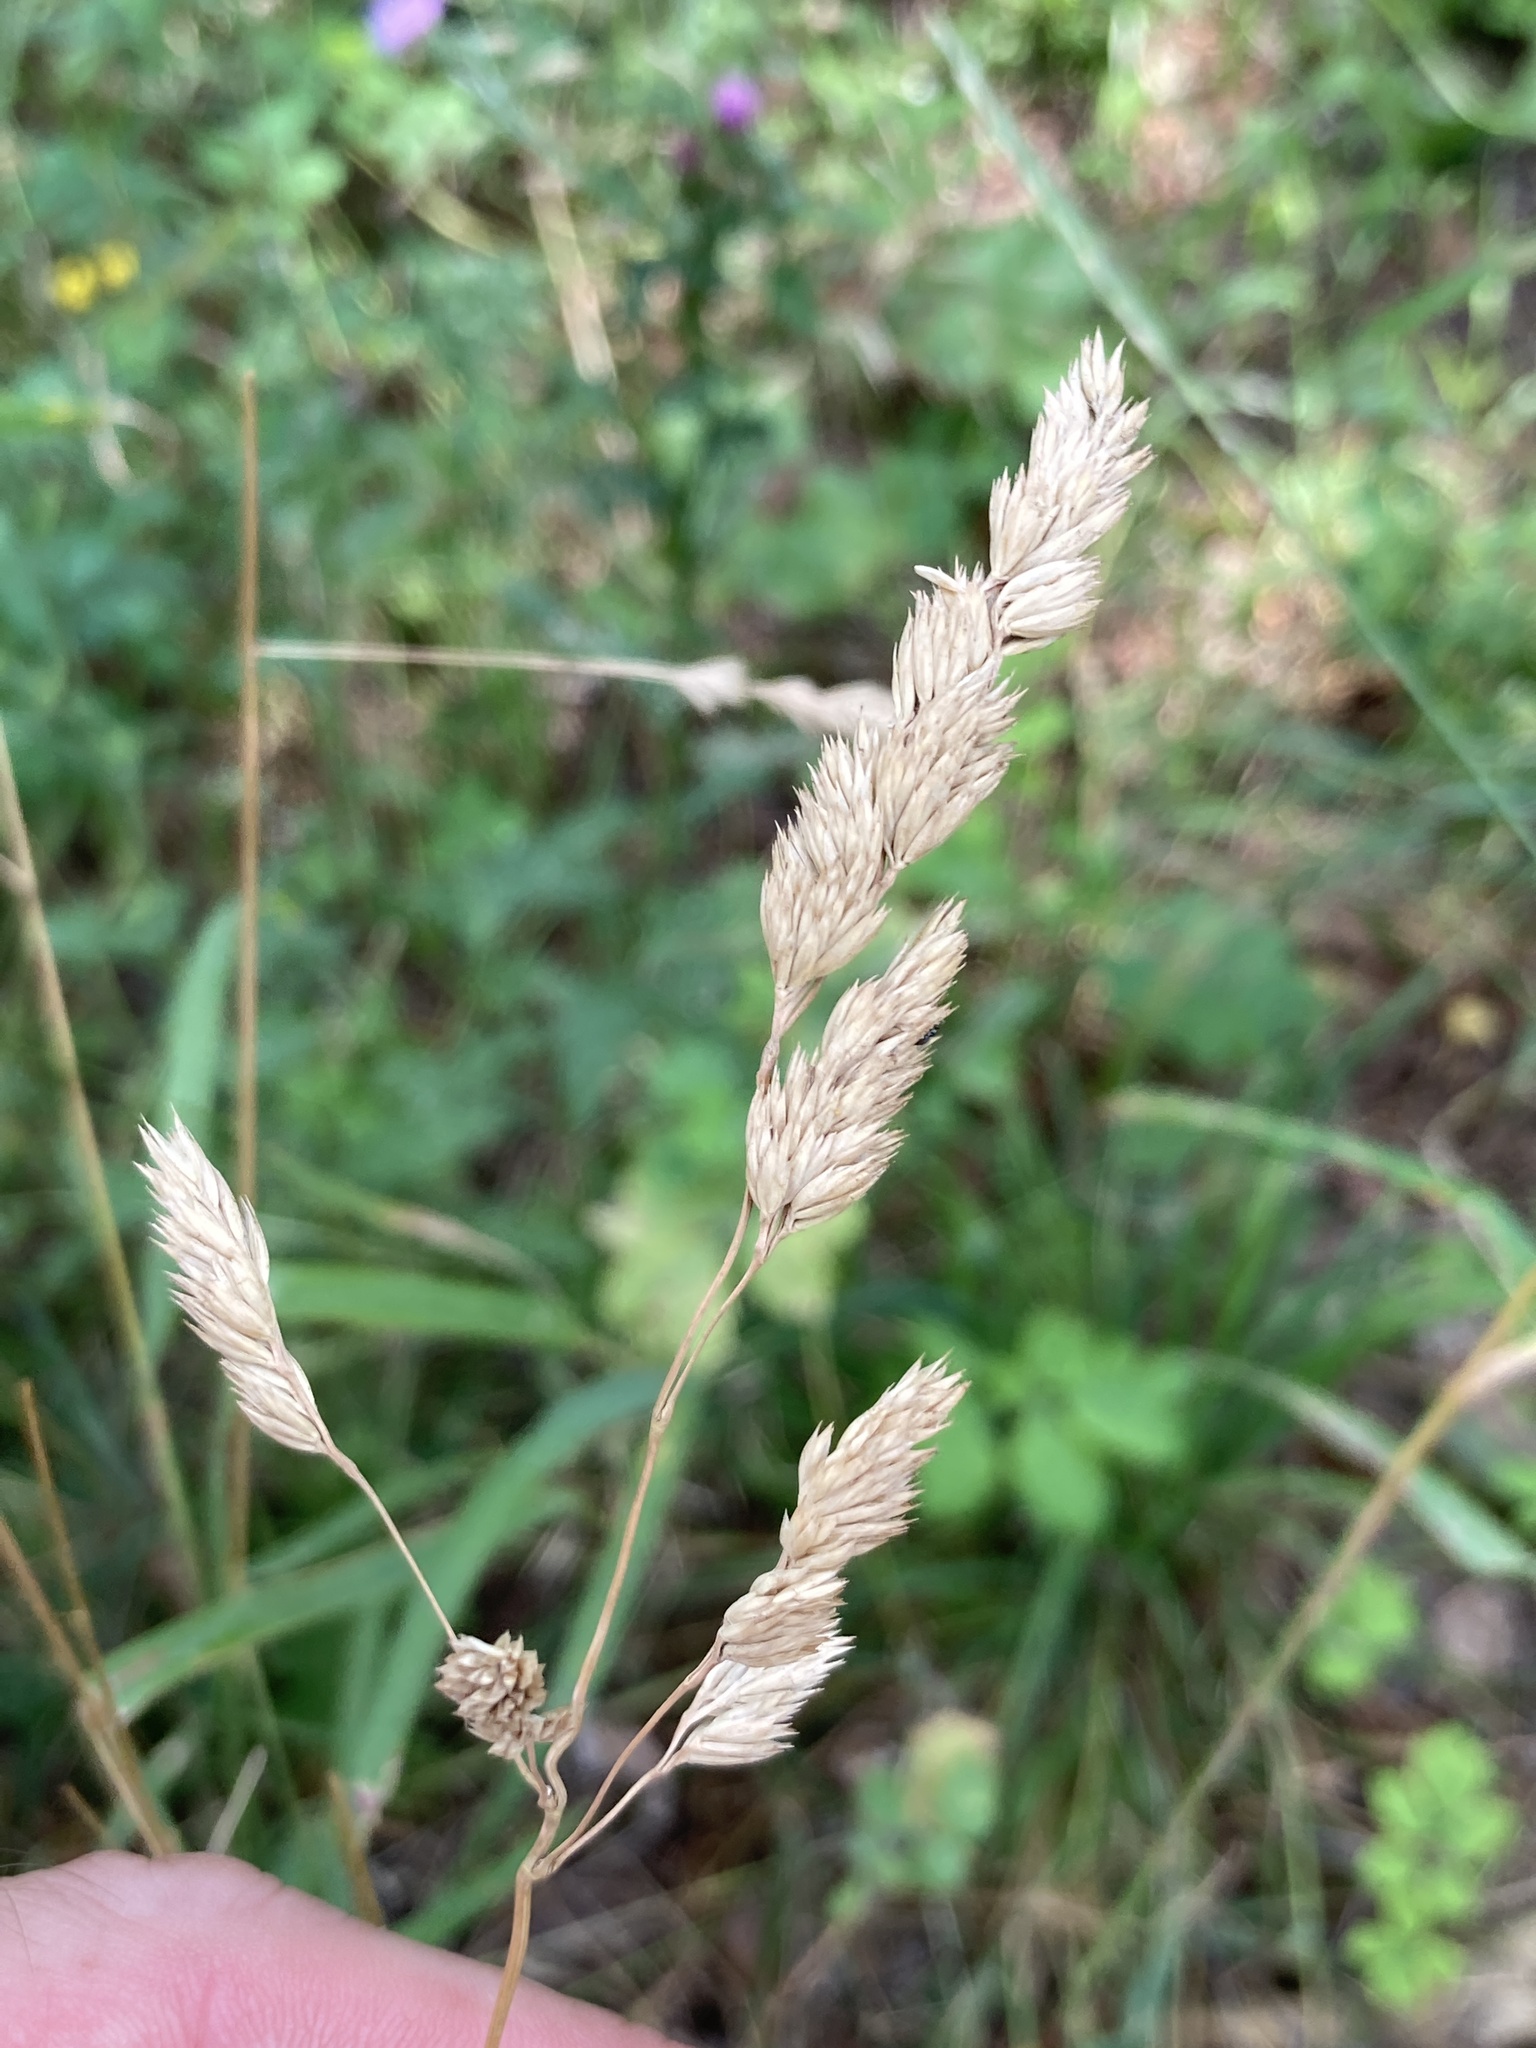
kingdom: Plantae
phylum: Tracheophyta
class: Liliopsida
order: Poales
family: Poaceae
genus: Dactylis
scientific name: Dactylis glomerata
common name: Orchardgrass
